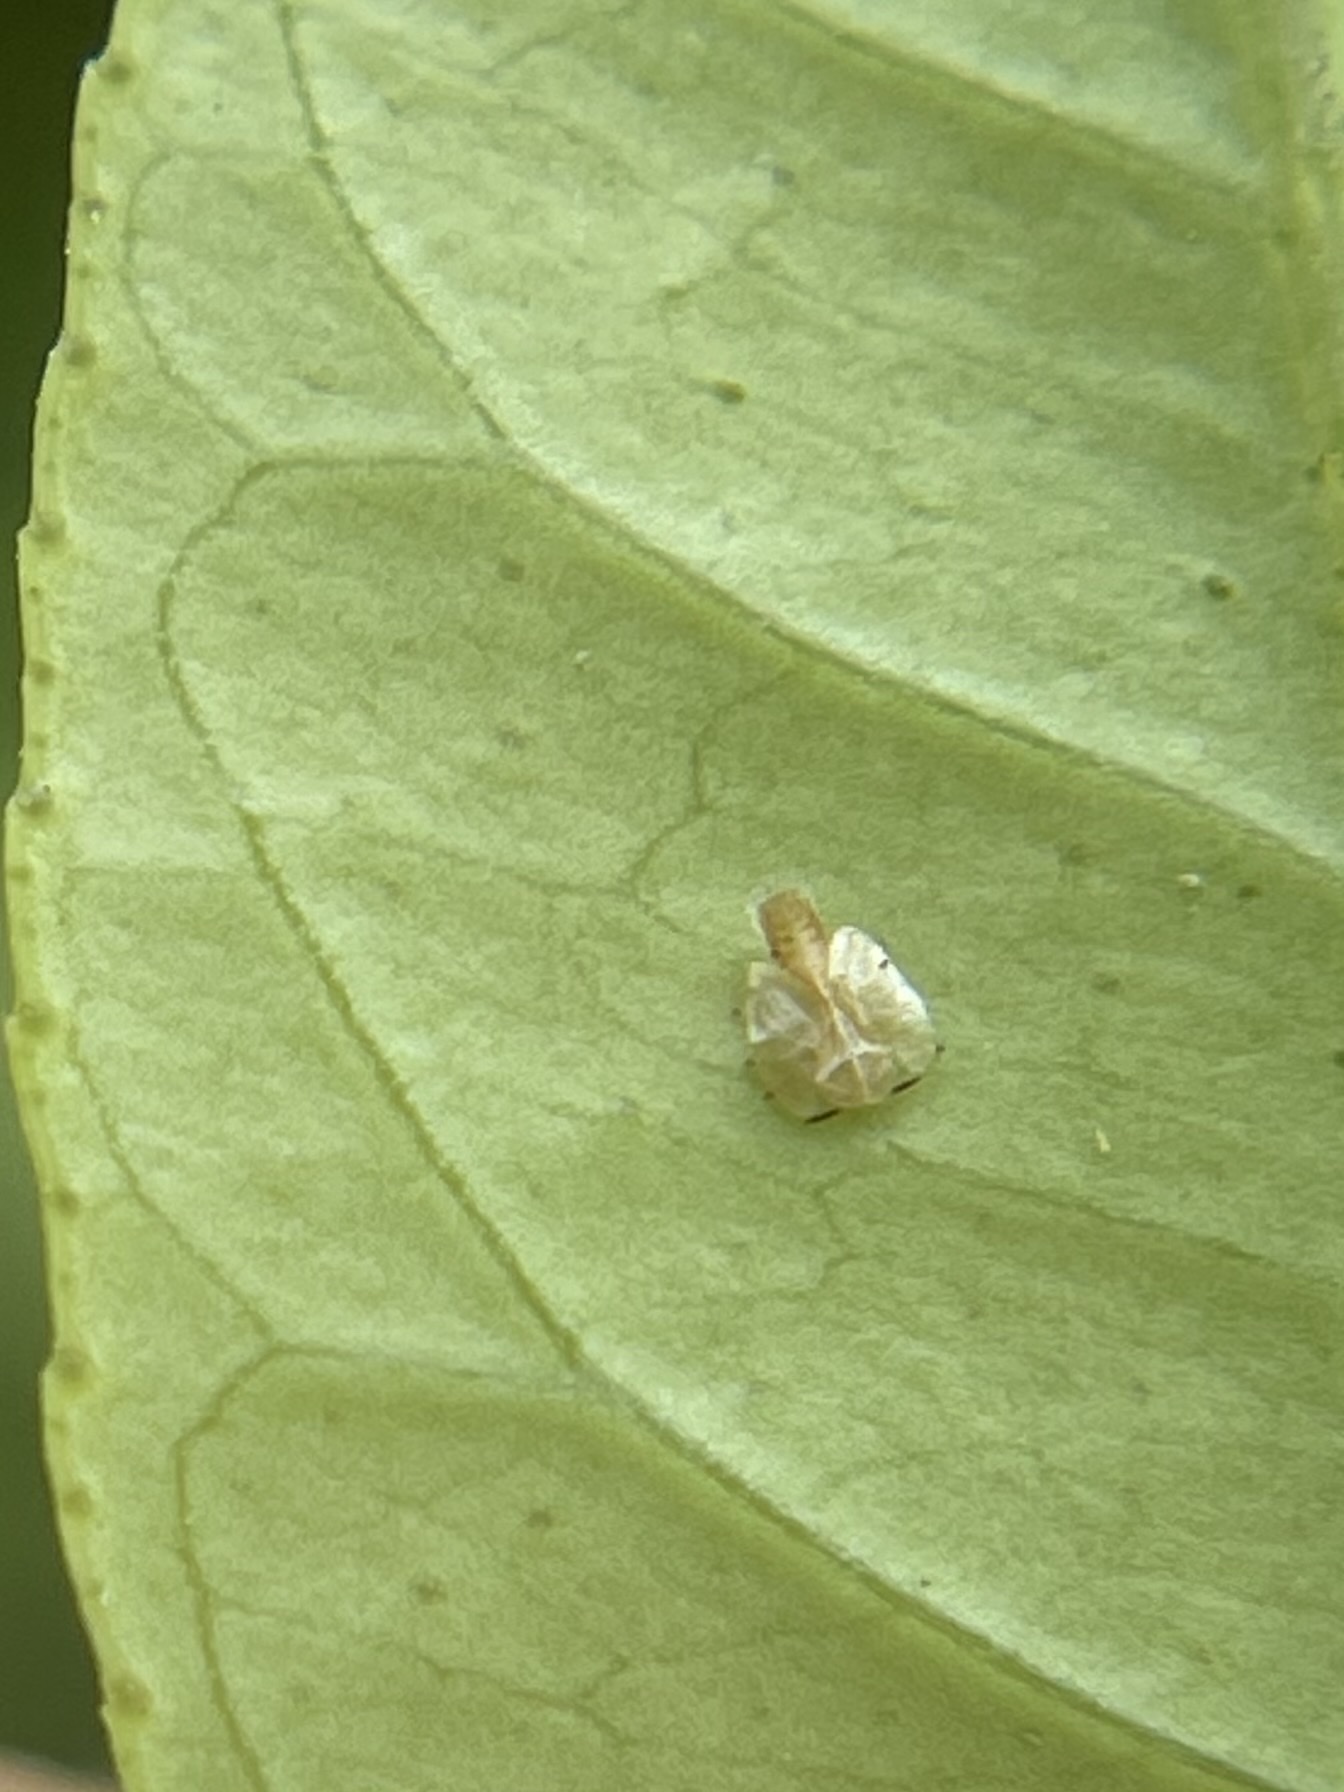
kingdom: Animalia
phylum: Arthropoda
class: Insecta
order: Hemiptera
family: Liviidae
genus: Diaphorina
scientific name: Diaphorina citri
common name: Asian citrus psyllid
